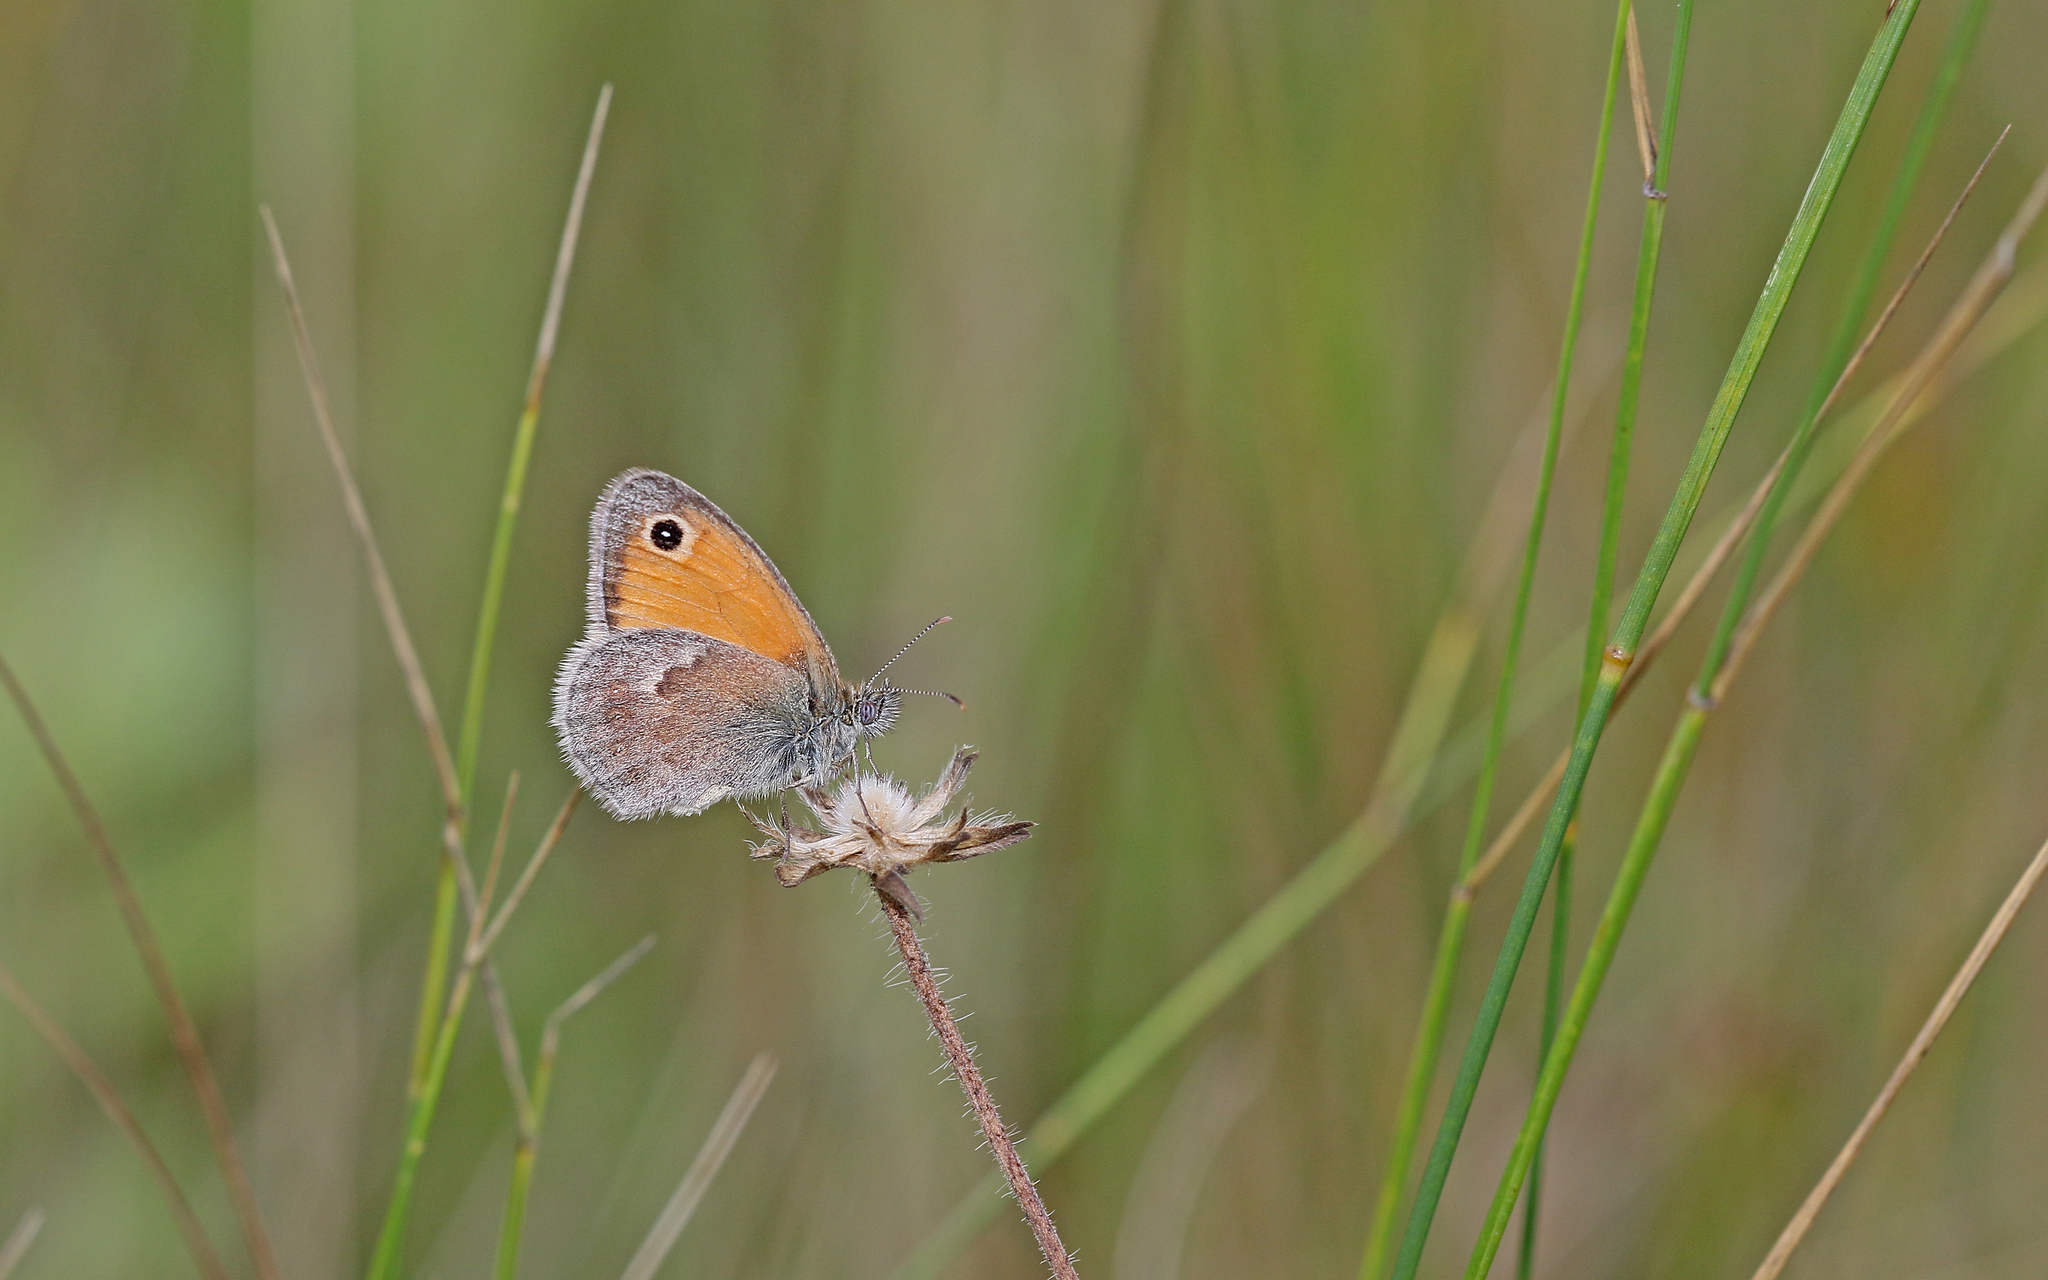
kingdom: Animalia
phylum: Arthropoda
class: Insecta
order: Lepidoptera
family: Nymphalidae
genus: Coenonympha
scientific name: Coenonympha pamphilus
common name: Small heath
